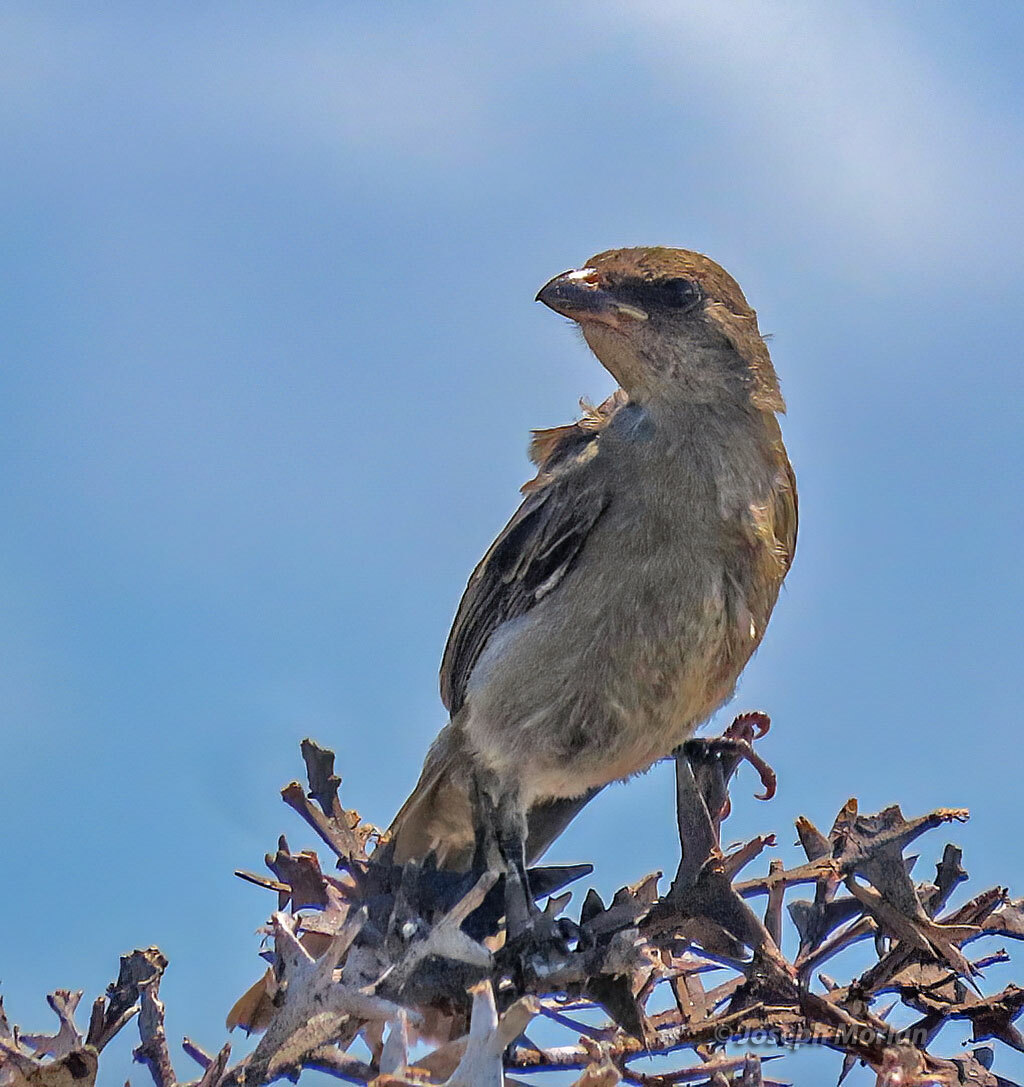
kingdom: Animalia
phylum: Chordata
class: Aves
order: Passeriformes
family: Thraupidae
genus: Rauenia
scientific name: Rauenia bonariensis
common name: Blue-and-yellow tanager
